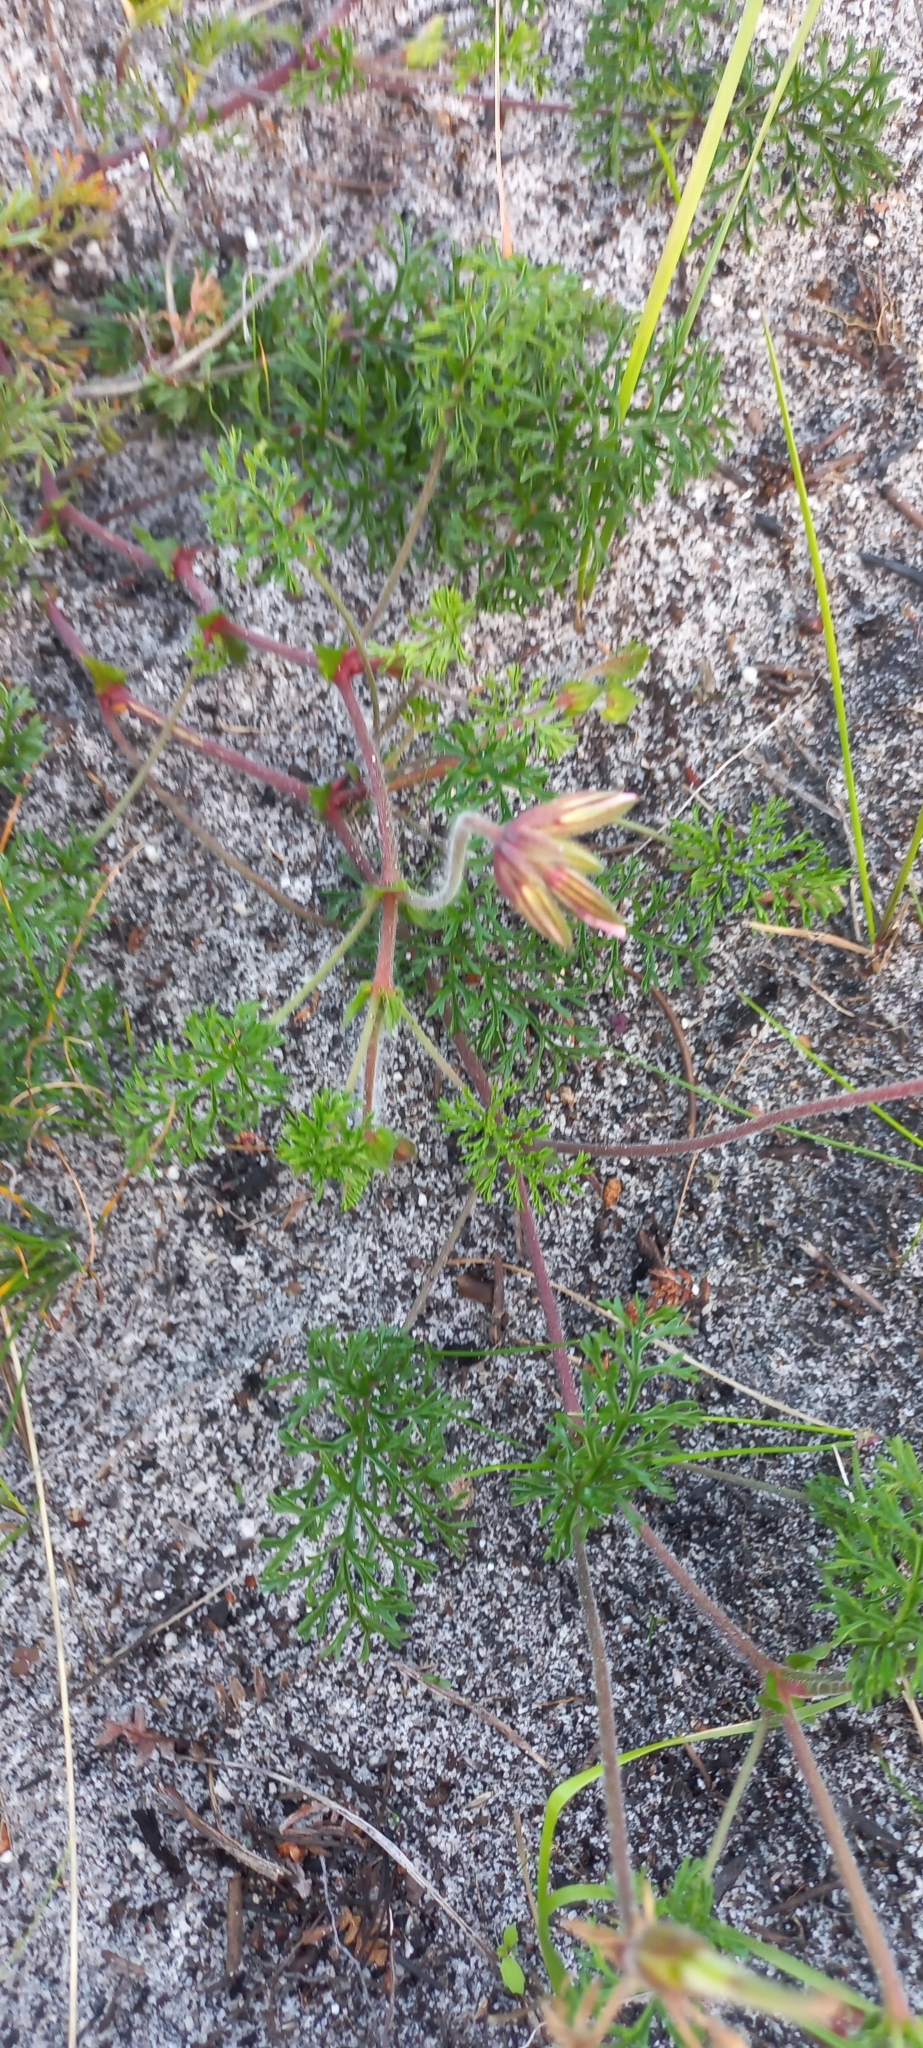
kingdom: Plantae
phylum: Tracheophyta
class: Magnoliopsida
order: Geraniales
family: Geraniaceae
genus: Pelargonium
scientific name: Pelargonium myrrhifolium
